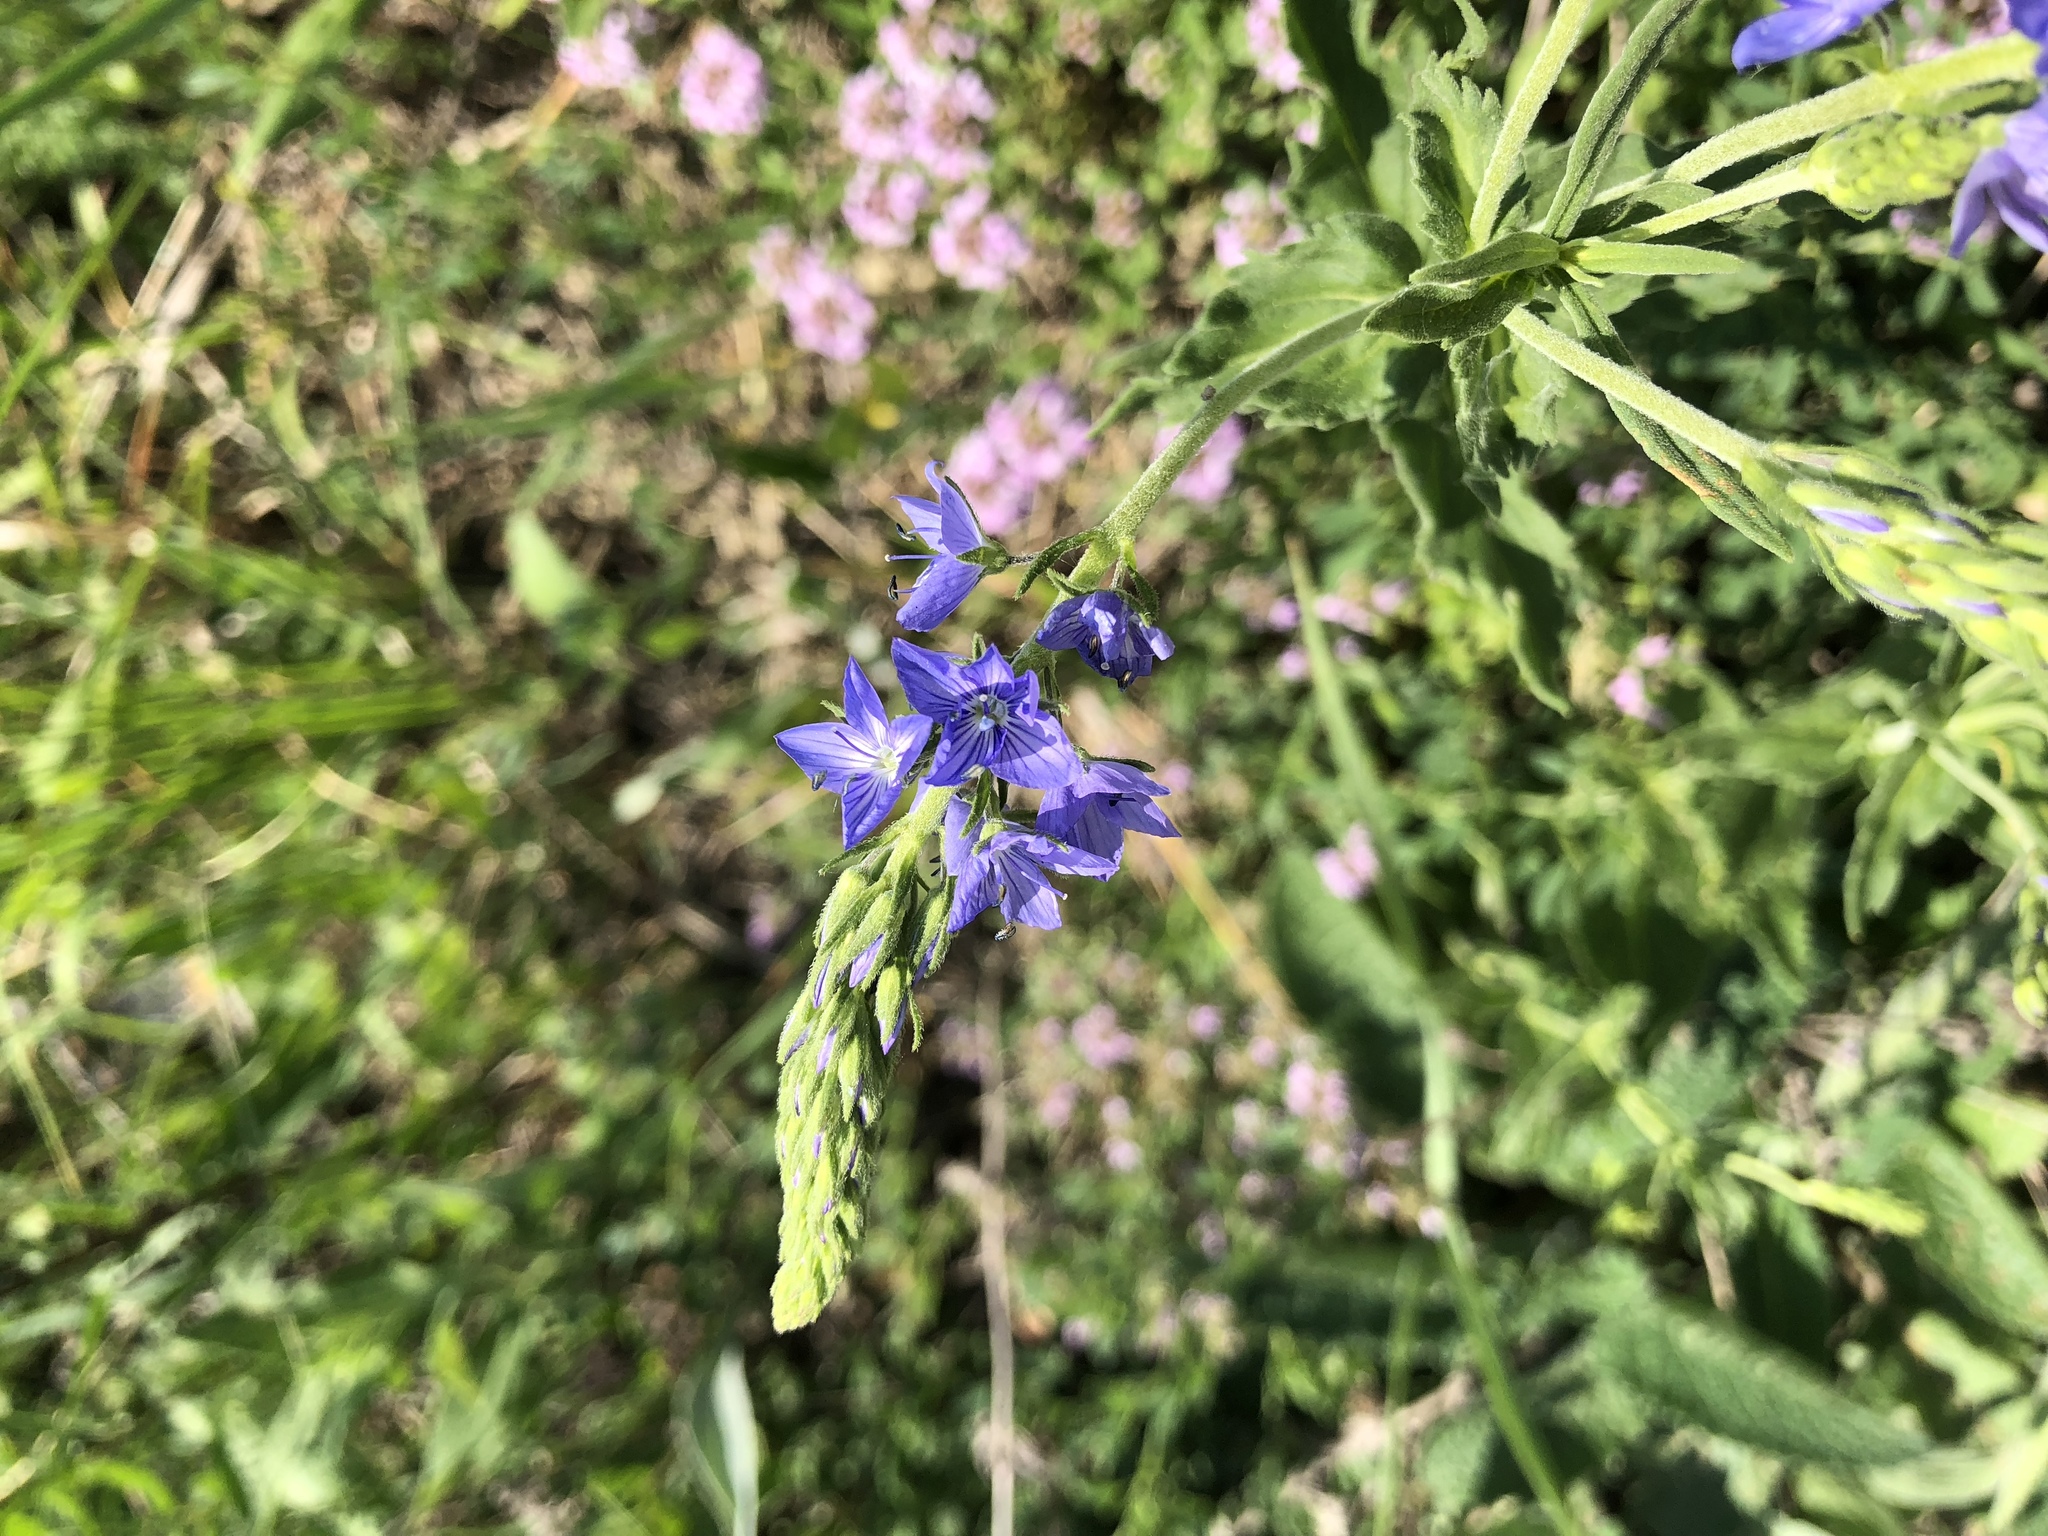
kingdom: Plantae
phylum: Tracheophyta
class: Magnoliopsida
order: Lamiales
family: Plantaginaceae
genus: Veronica
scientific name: Veronica austriaca
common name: Large speedwell
